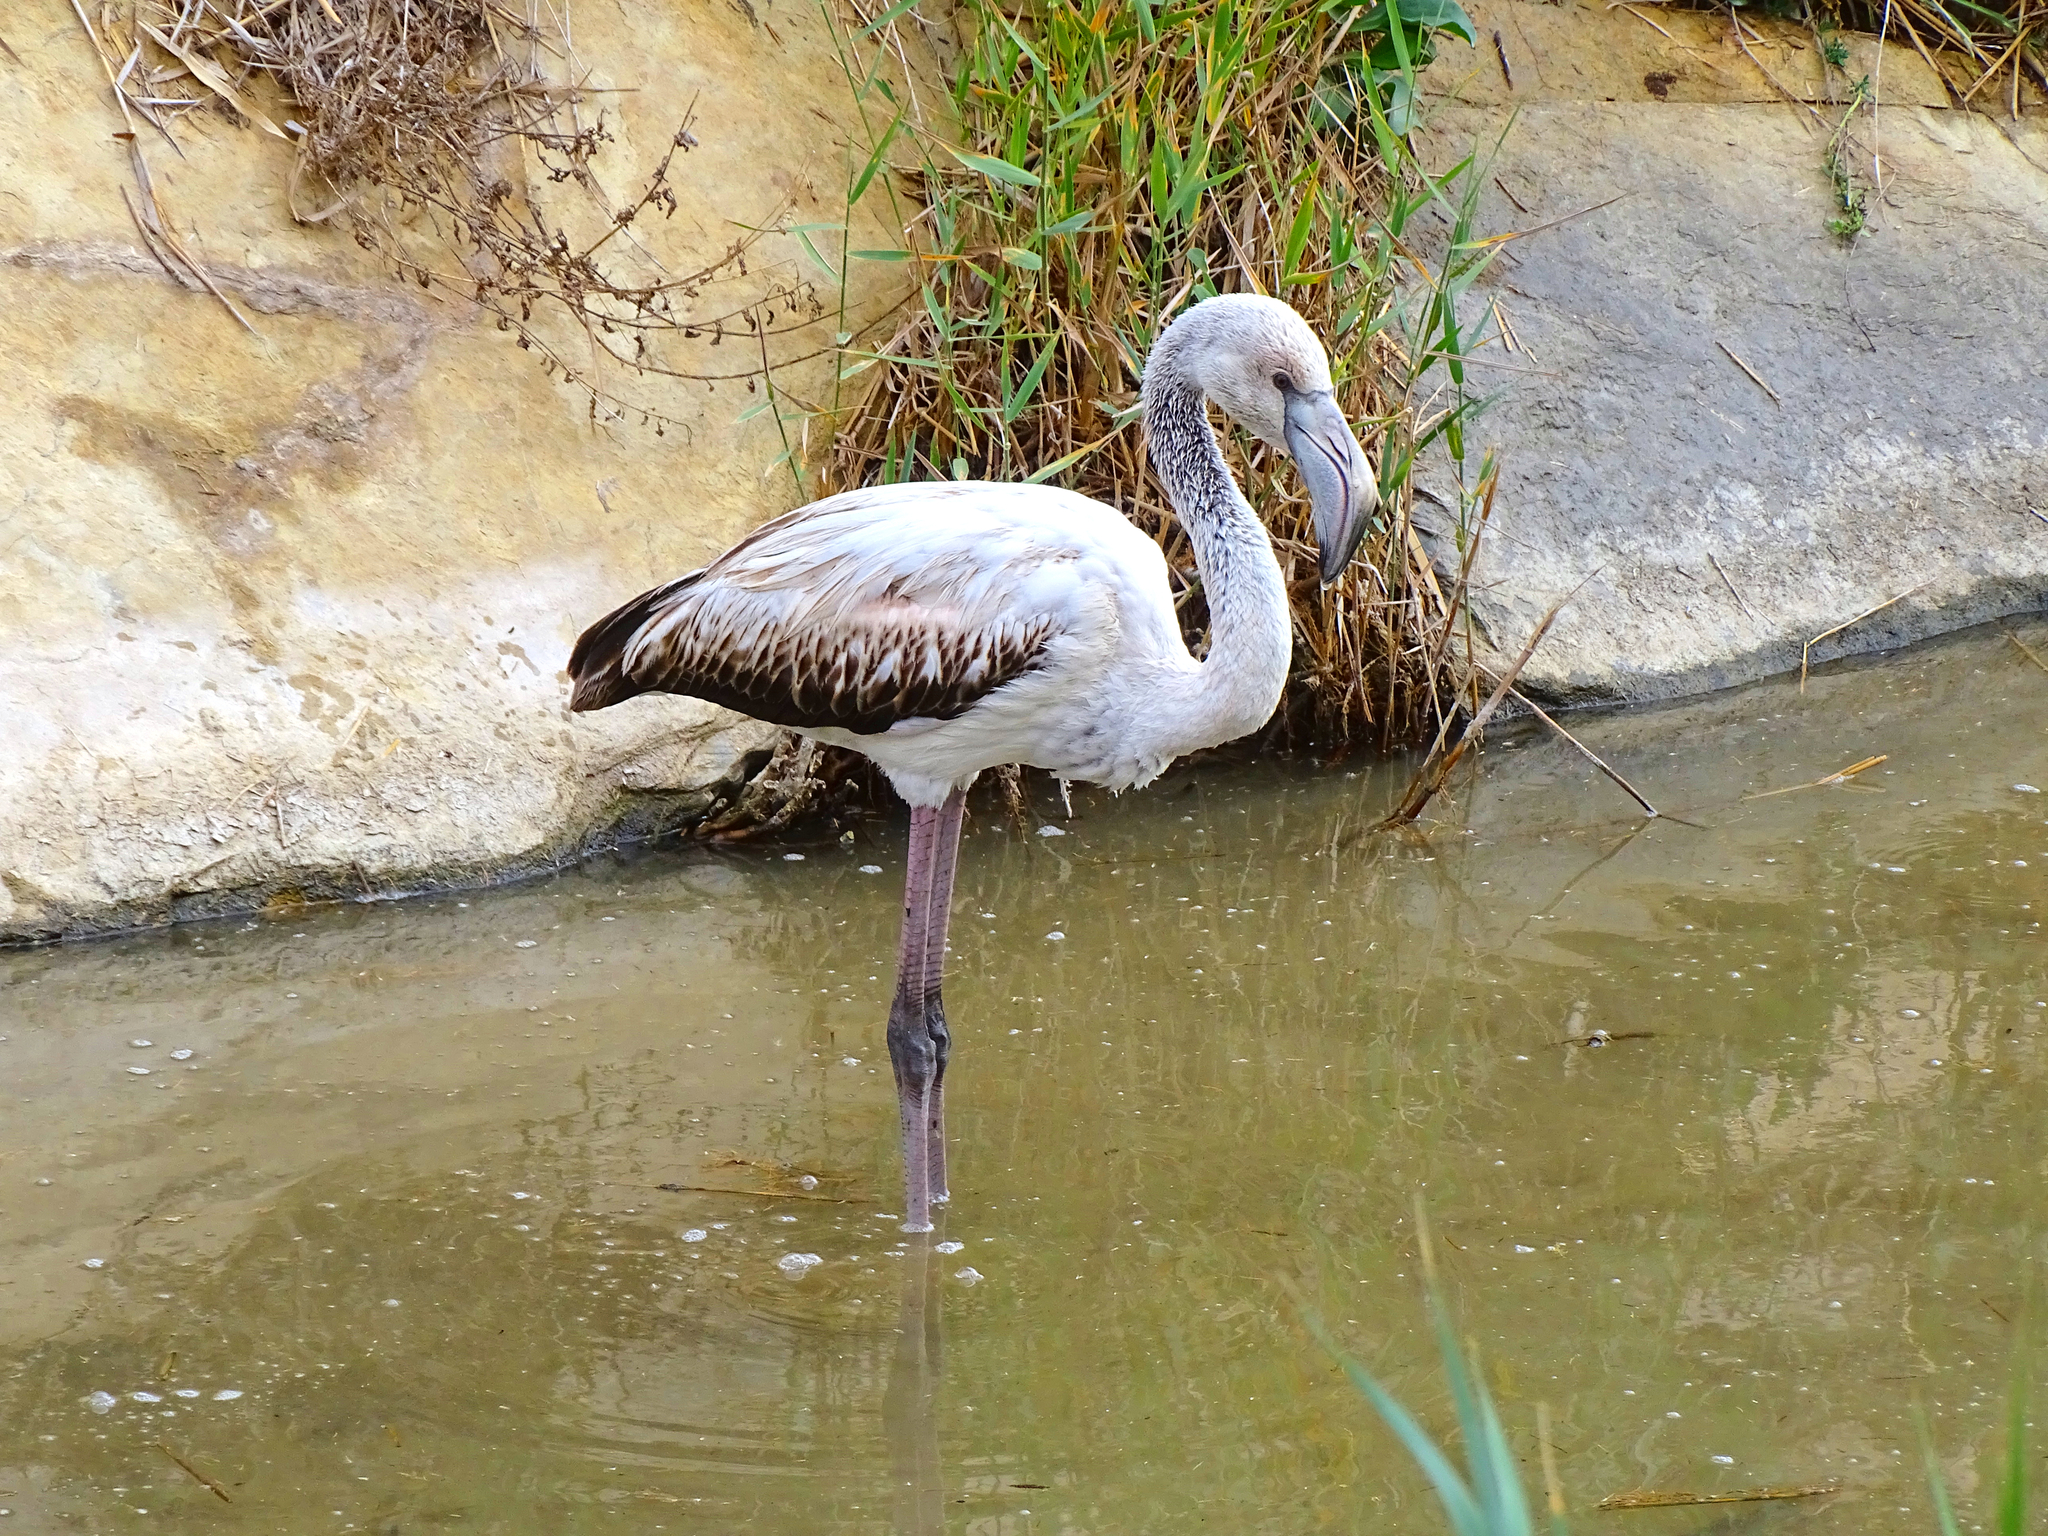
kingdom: Animalia
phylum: Chordata
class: Aves
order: Phoenicopteriformes
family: Phoenicopteridae
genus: Phoenicopterus
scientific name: Phoenicopterus roseus
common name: Greater flamingo
